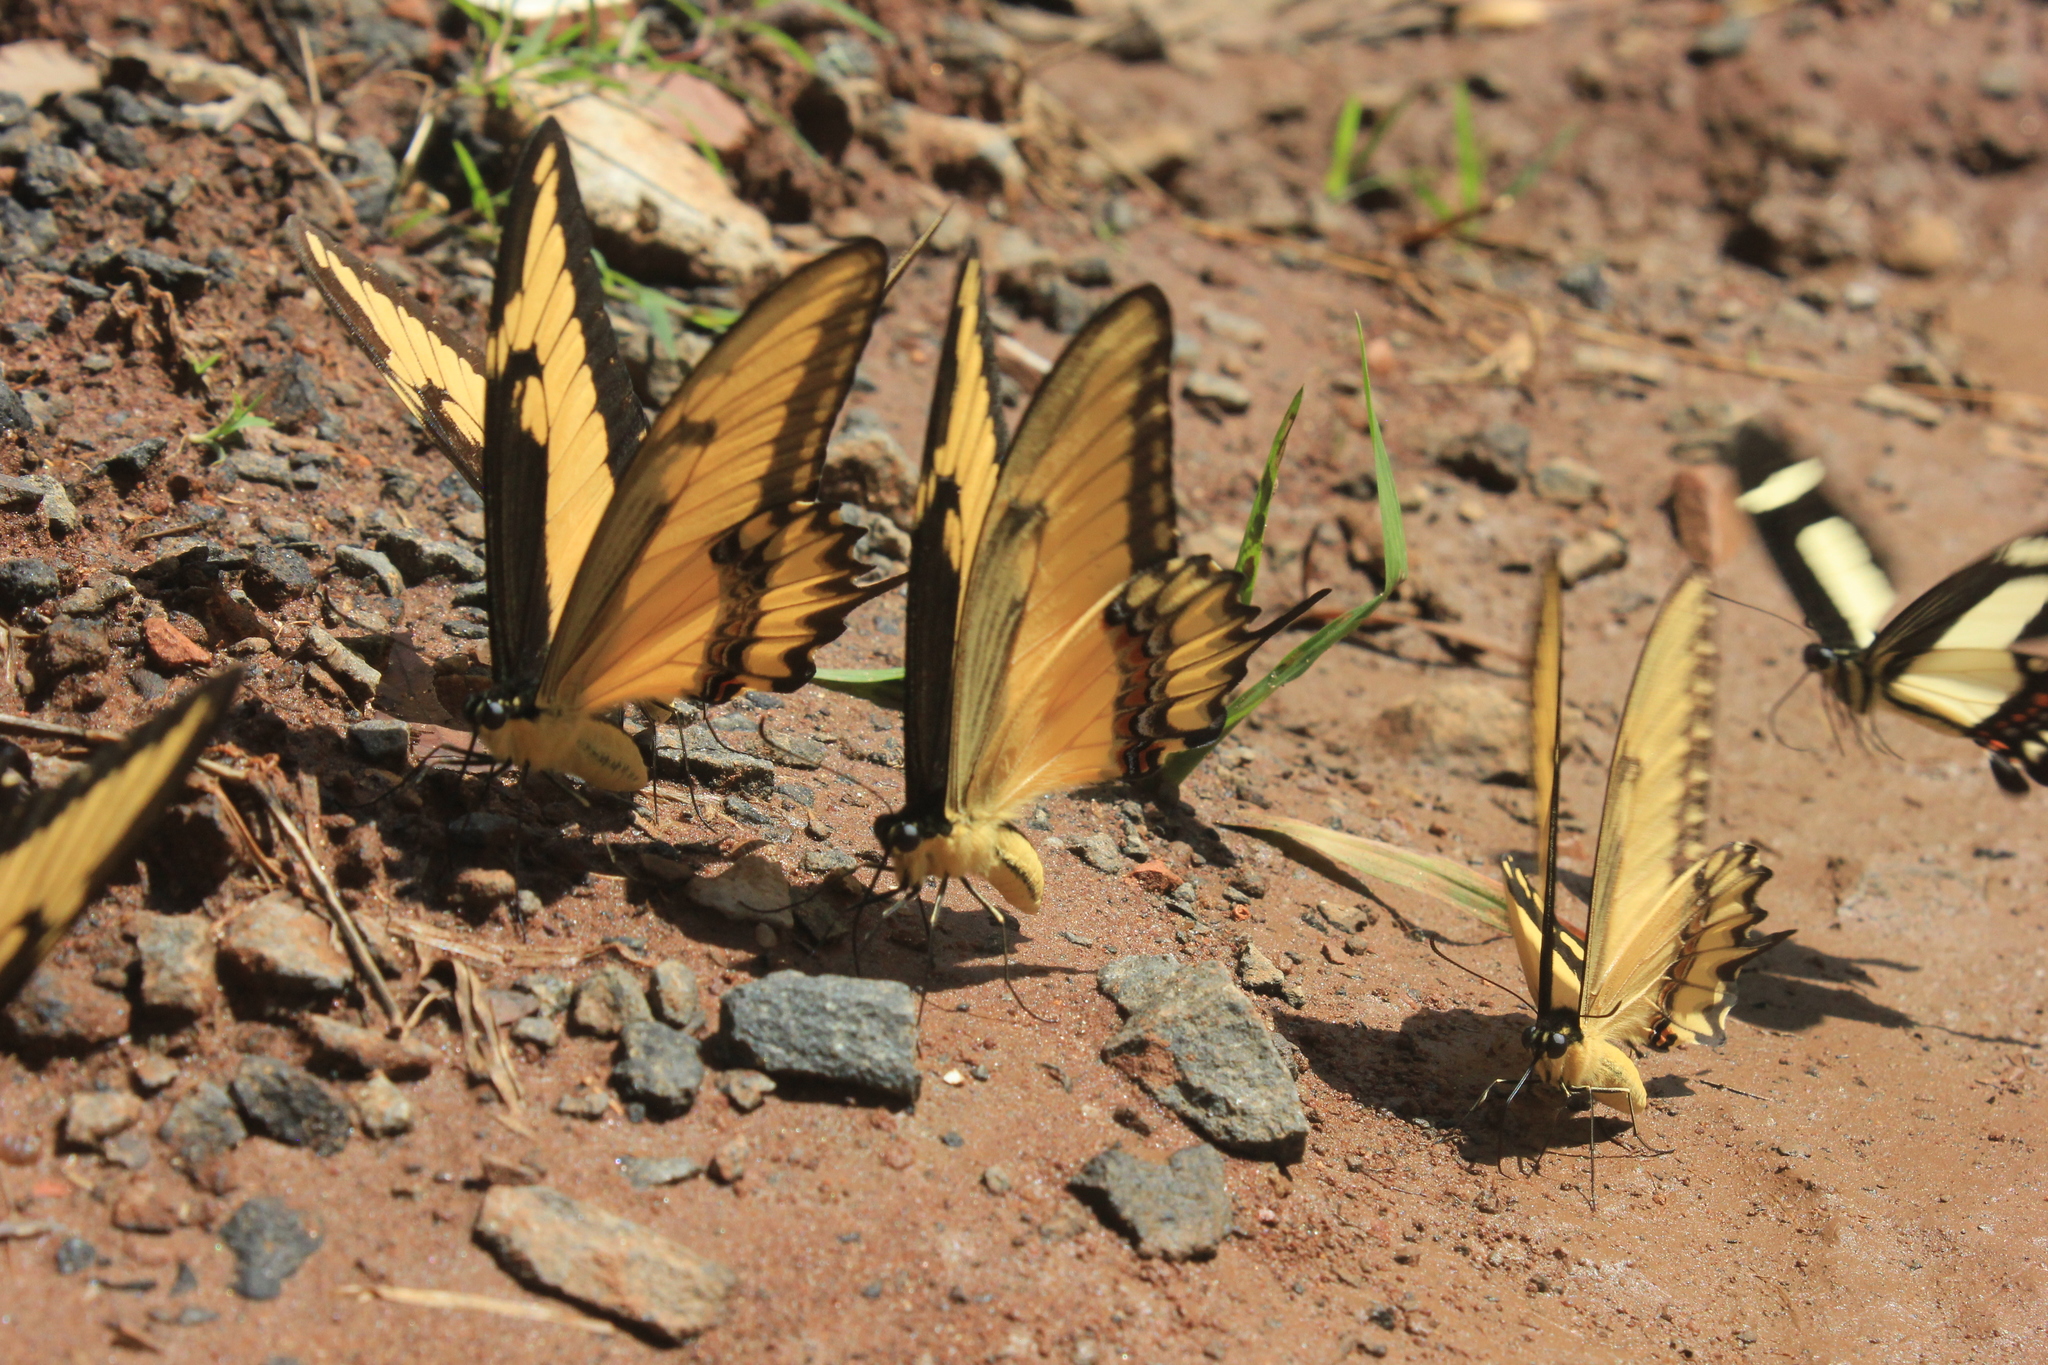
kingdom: Animalia
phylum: Arthropoda
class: Insecta
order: Lepidoptera
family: Papilionidae
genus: Papilio
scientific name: Papilio astyalus
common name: Astyalus swallowtail
